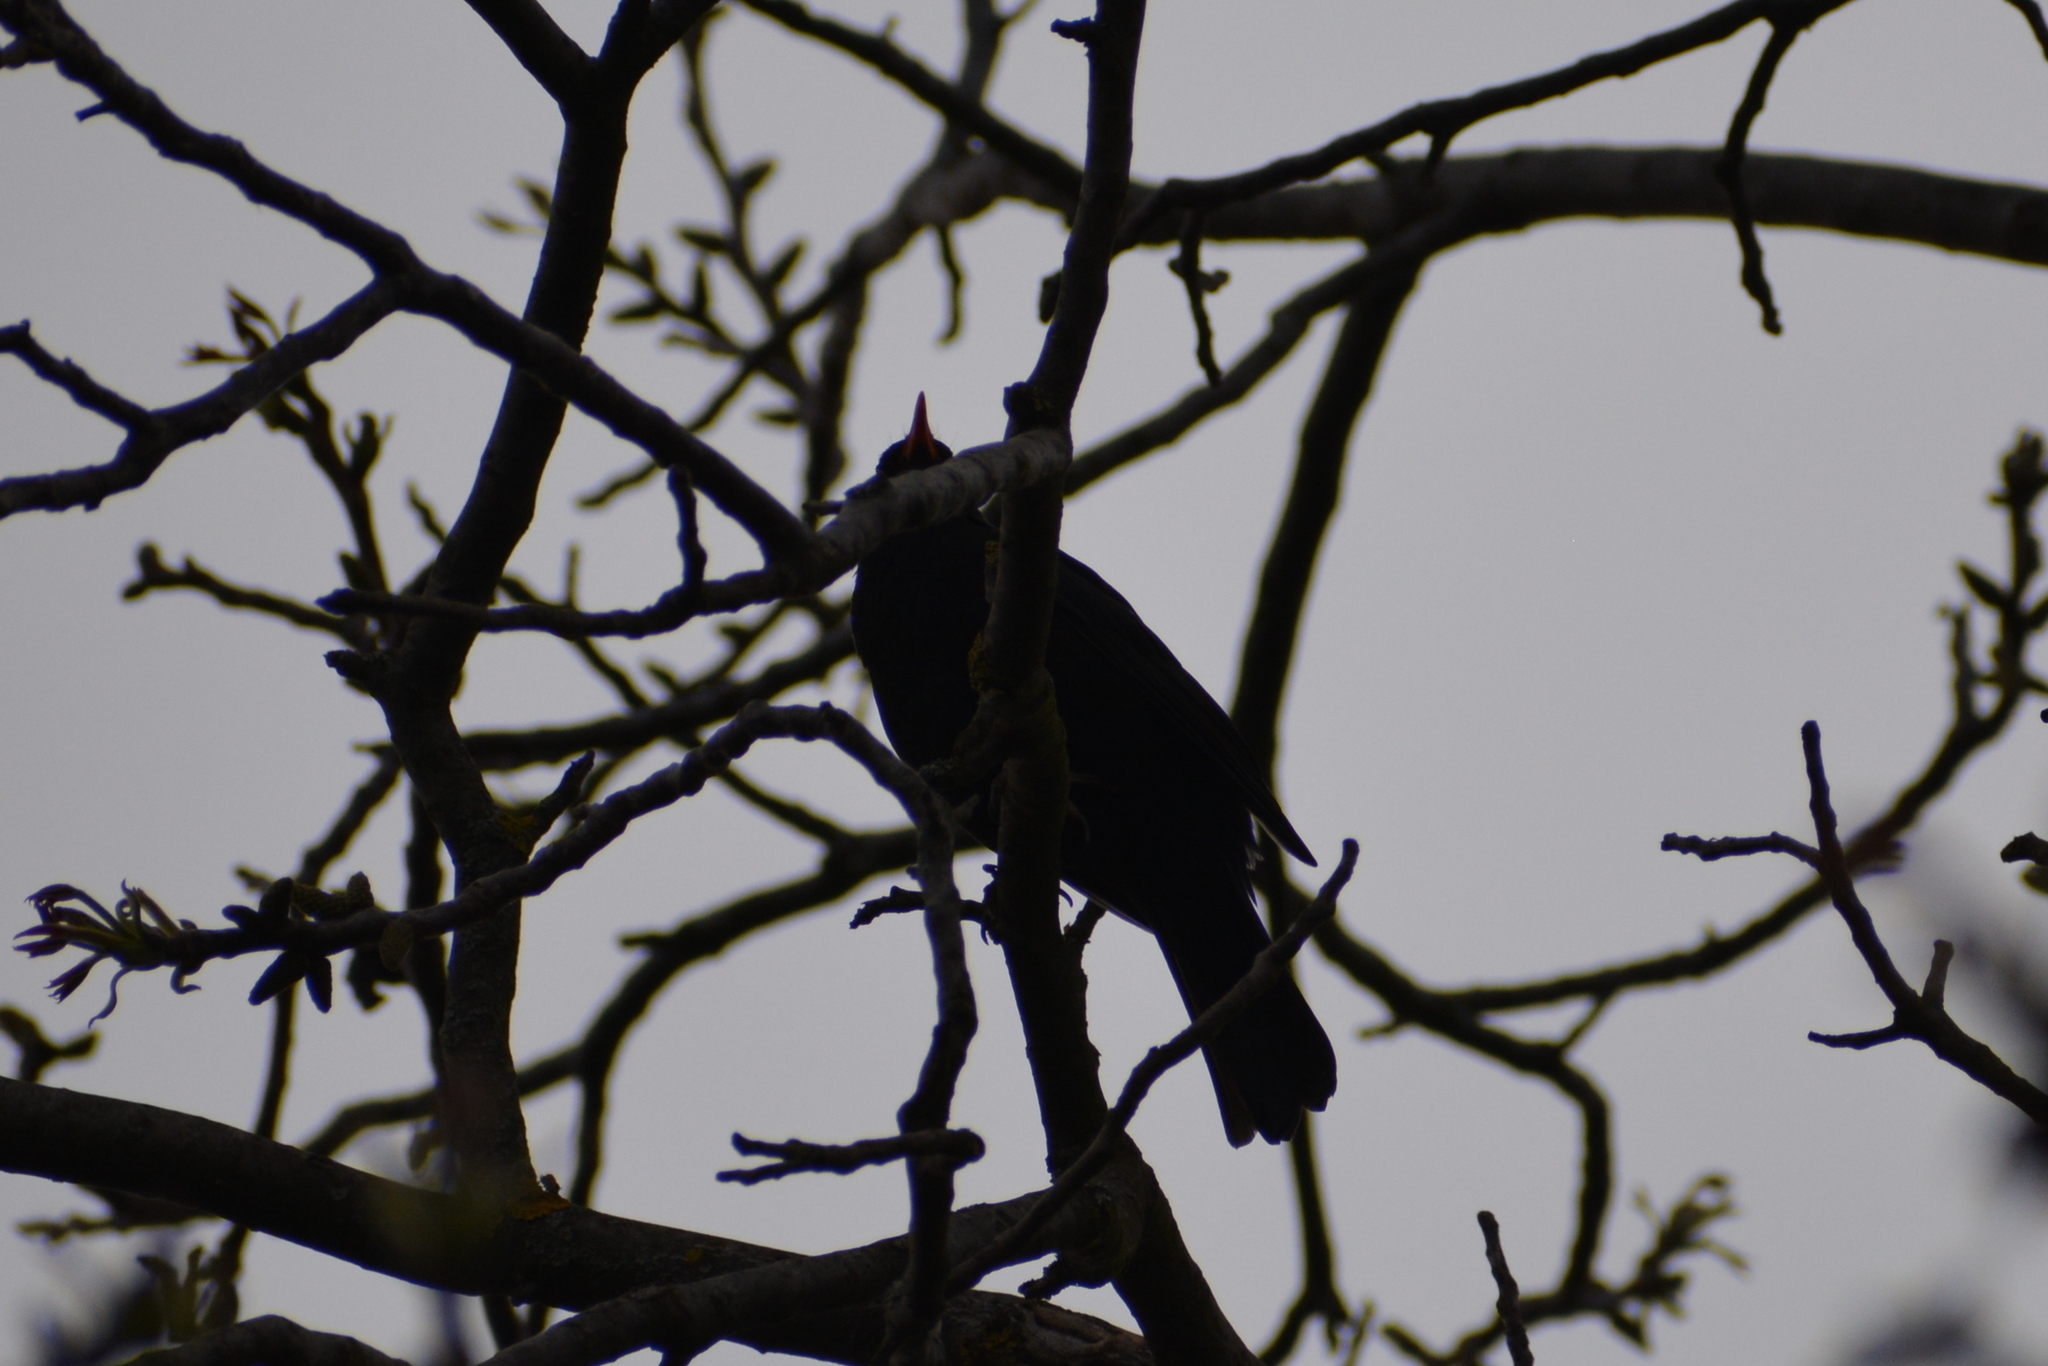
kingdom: Animalia
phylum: Chordata
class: Aves
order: Passeriformes
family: Turdidae
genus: Turdus
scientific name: Turdus merula
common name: Common blackbird
